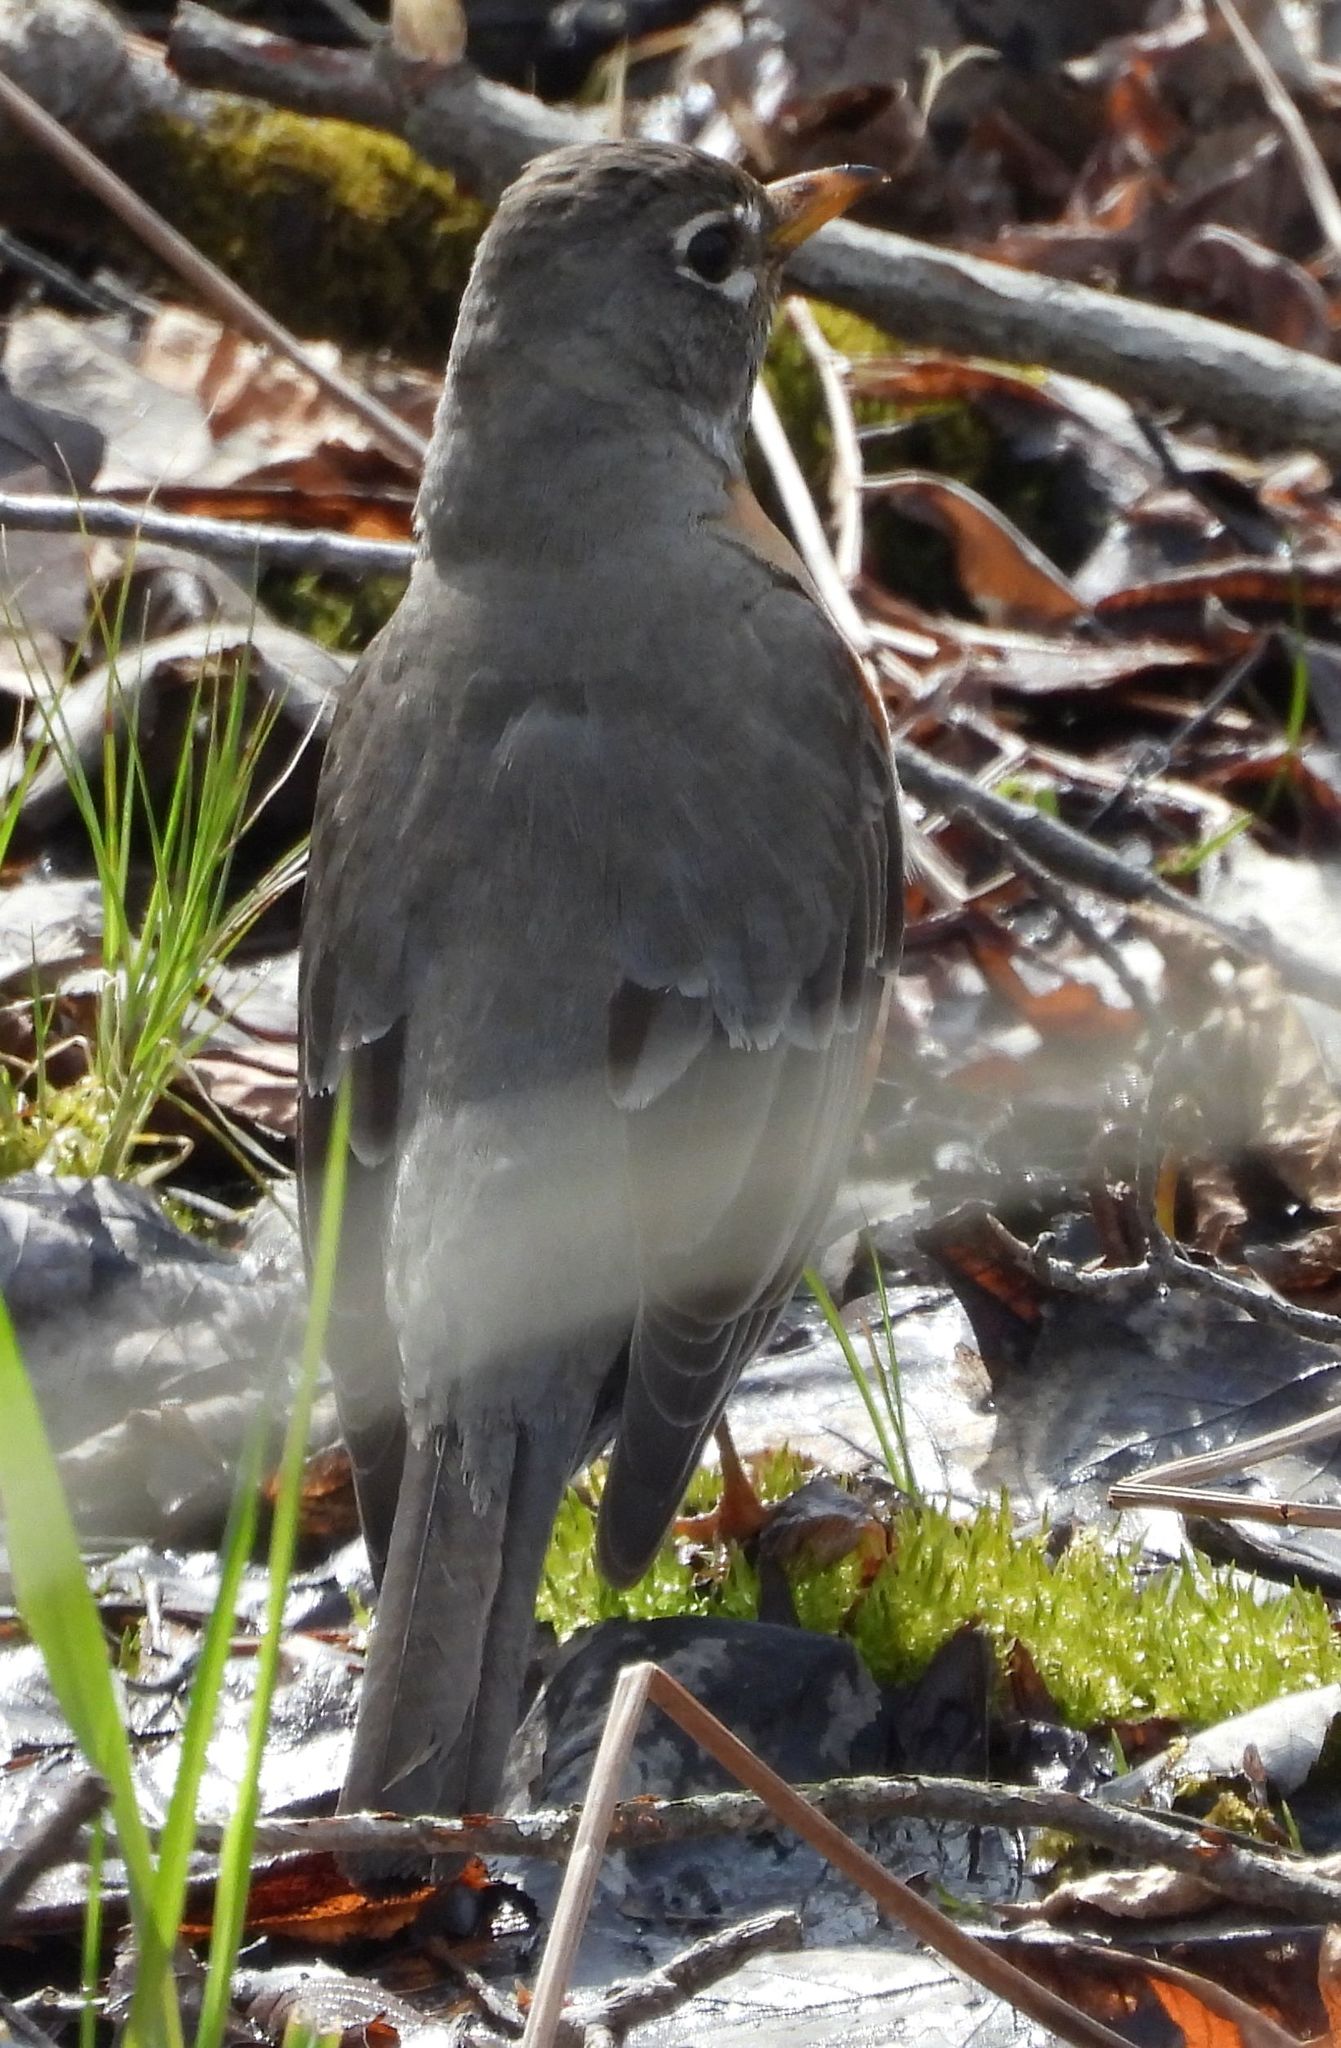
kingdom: Animalia
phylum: Chordata
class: Aves
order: Passeriformes
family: Turdidae
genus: Turdus
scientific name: Turdus migratorius
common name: American robin
